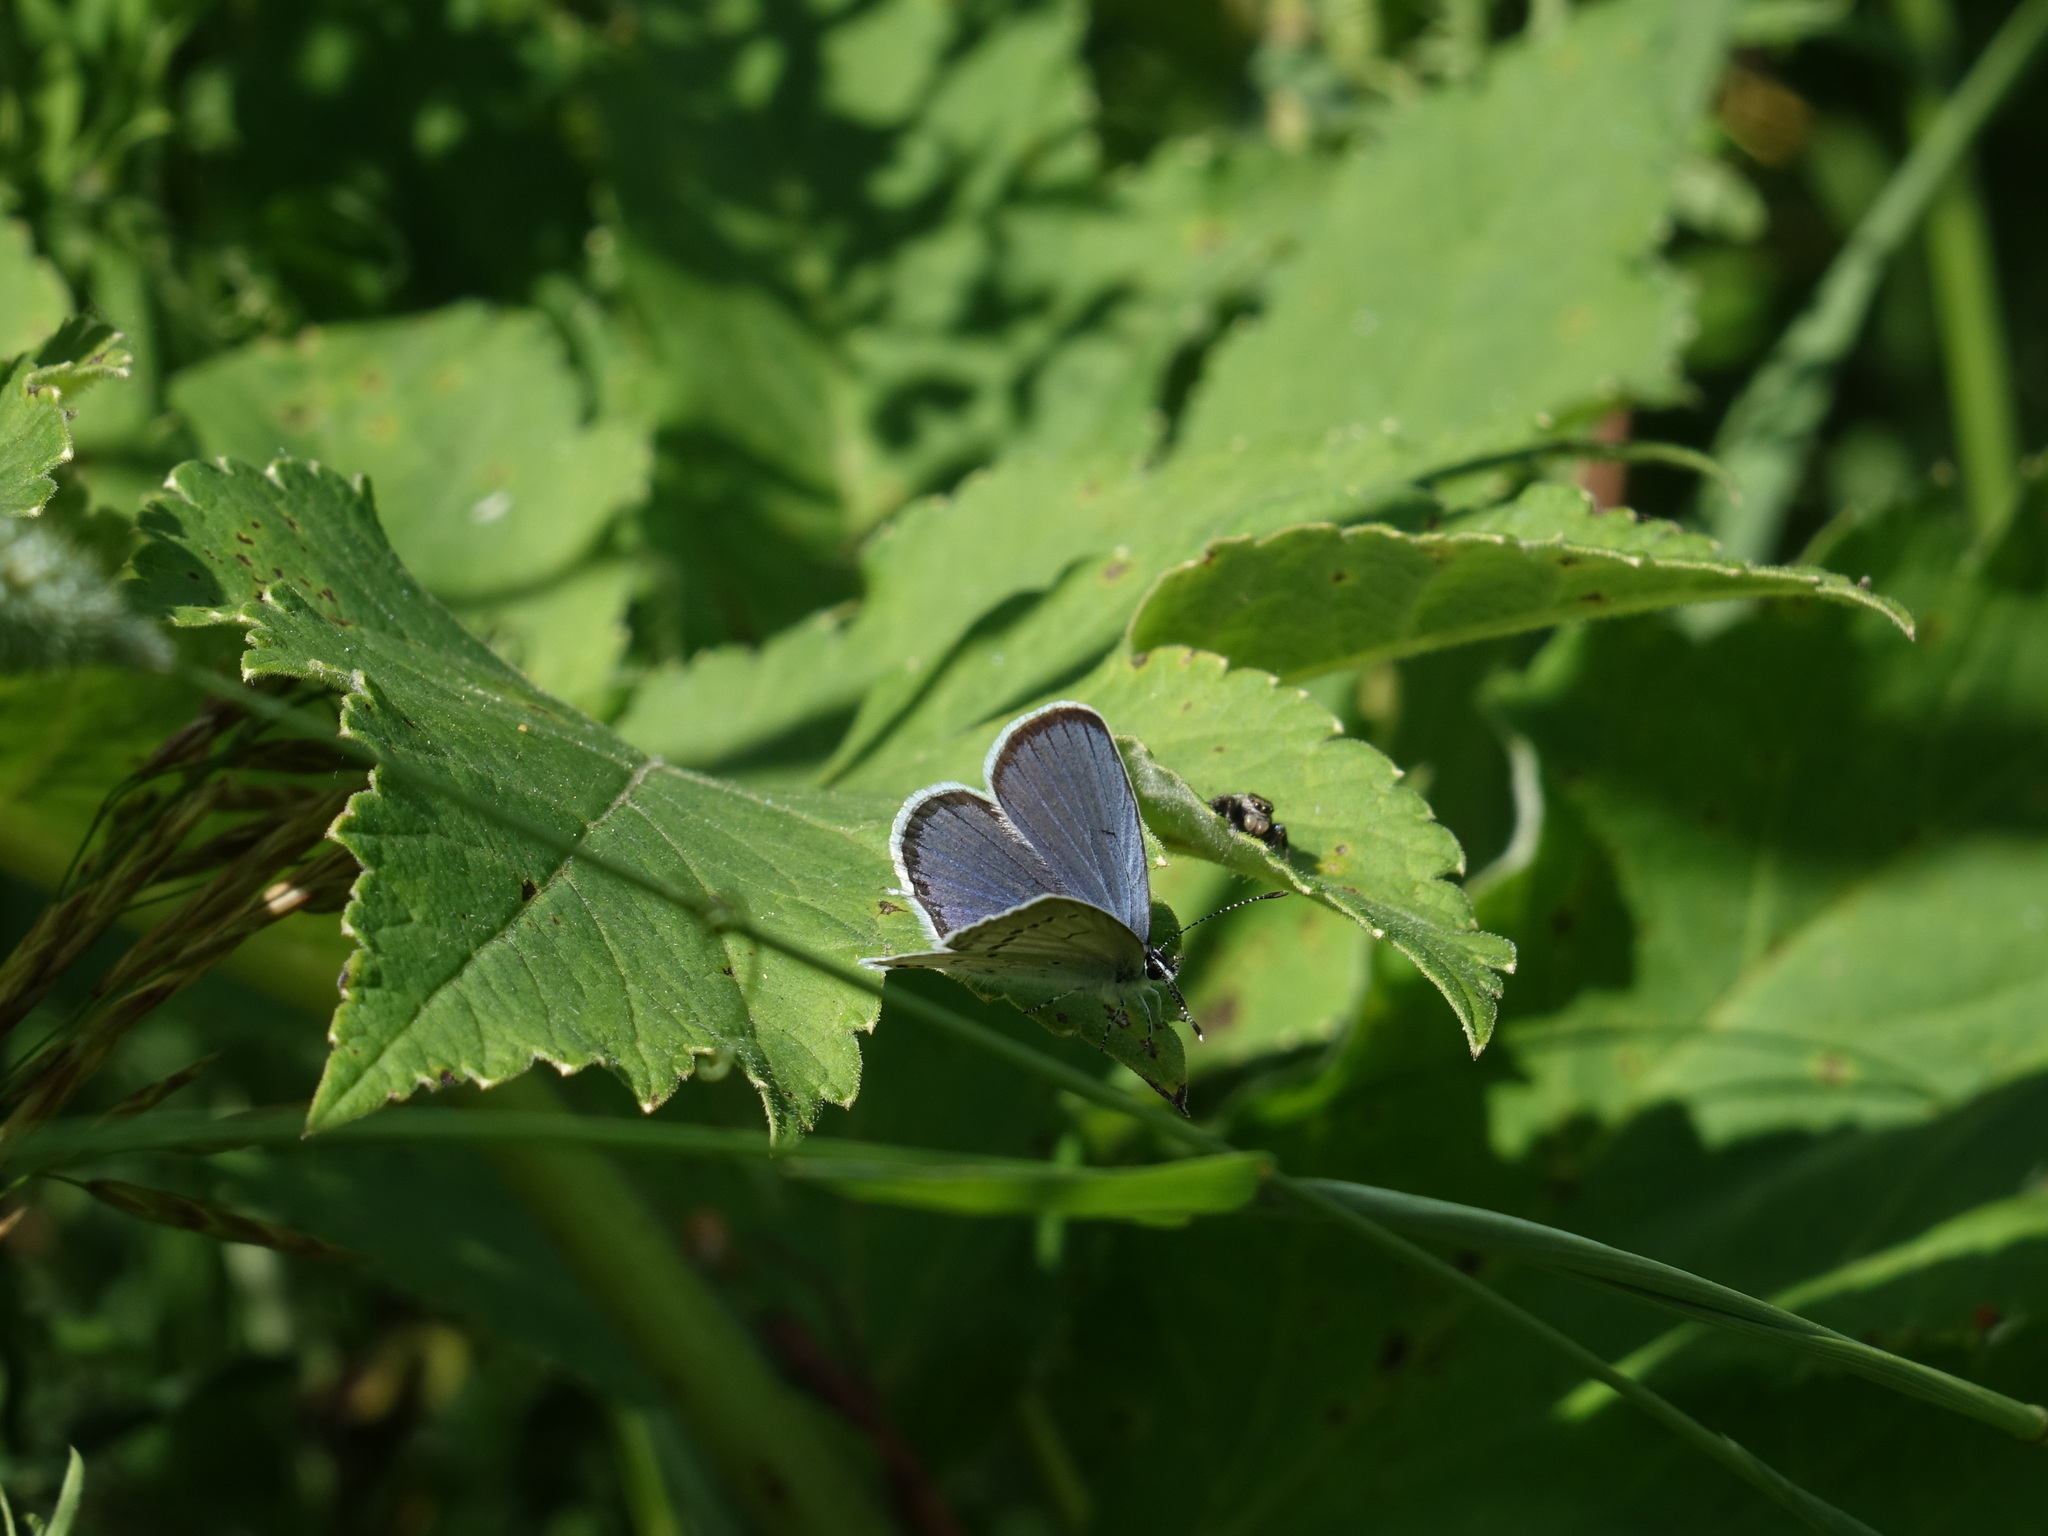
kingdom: Animalia
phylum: Arthropoda
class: Insecta
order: Lepidoptera
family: Lycaenidae
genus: Elkalyce
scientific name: Elkalyce argiades
